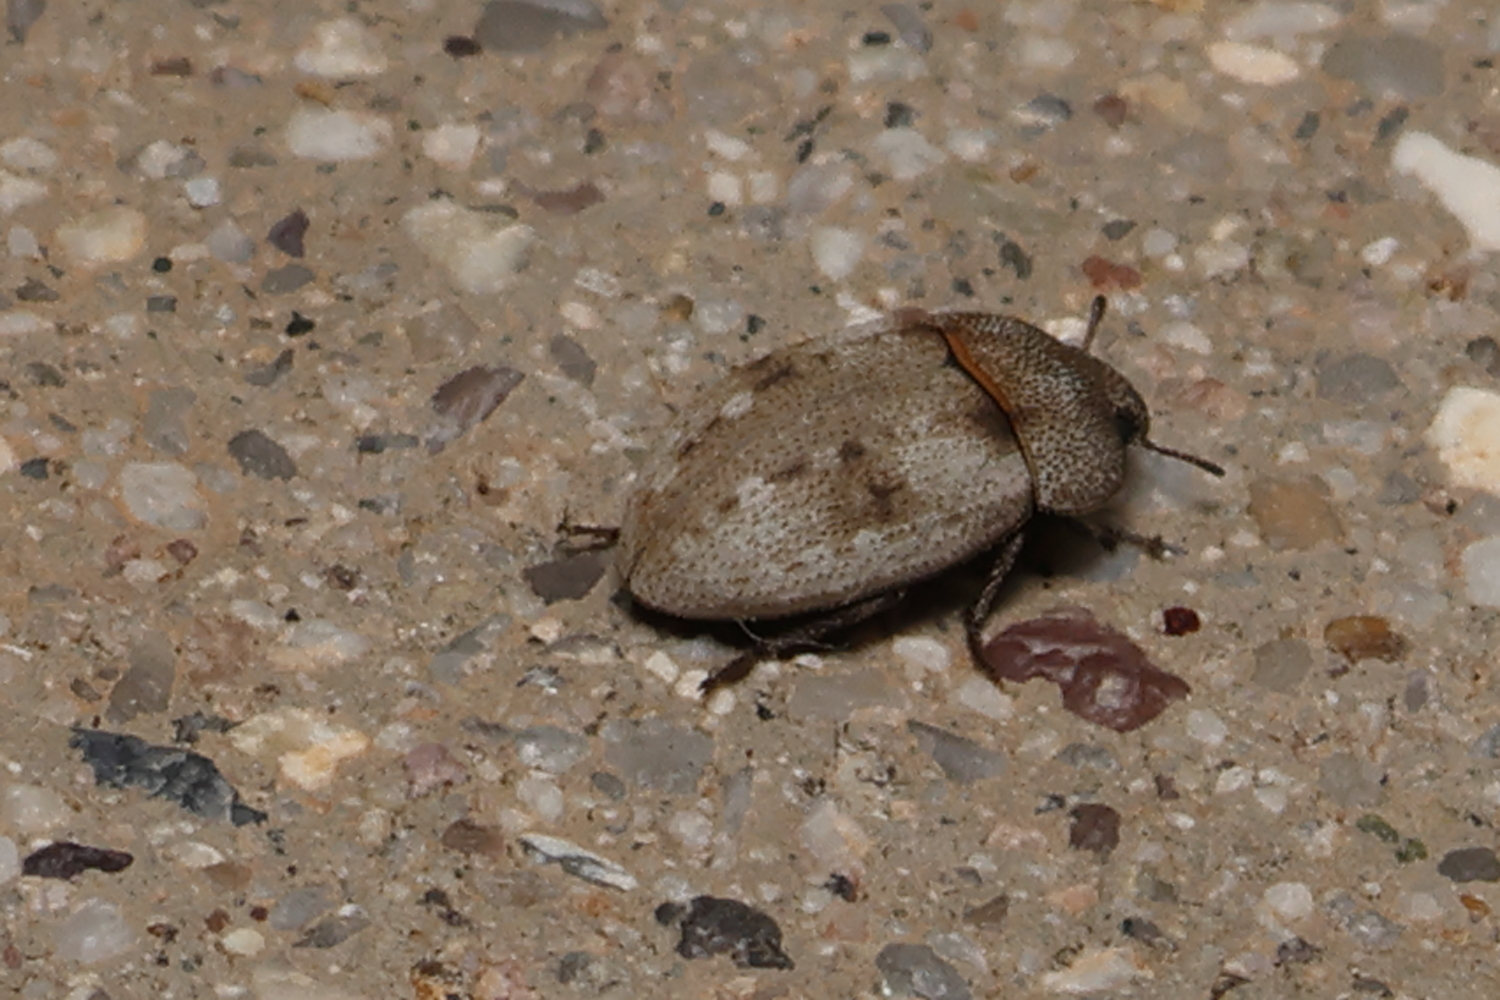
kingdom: Animalia
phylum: Arthropoda
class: Insecta
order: Coleoptera
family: Tenebrionidae
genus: Ammodonus
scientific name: Ammodonus granosus
